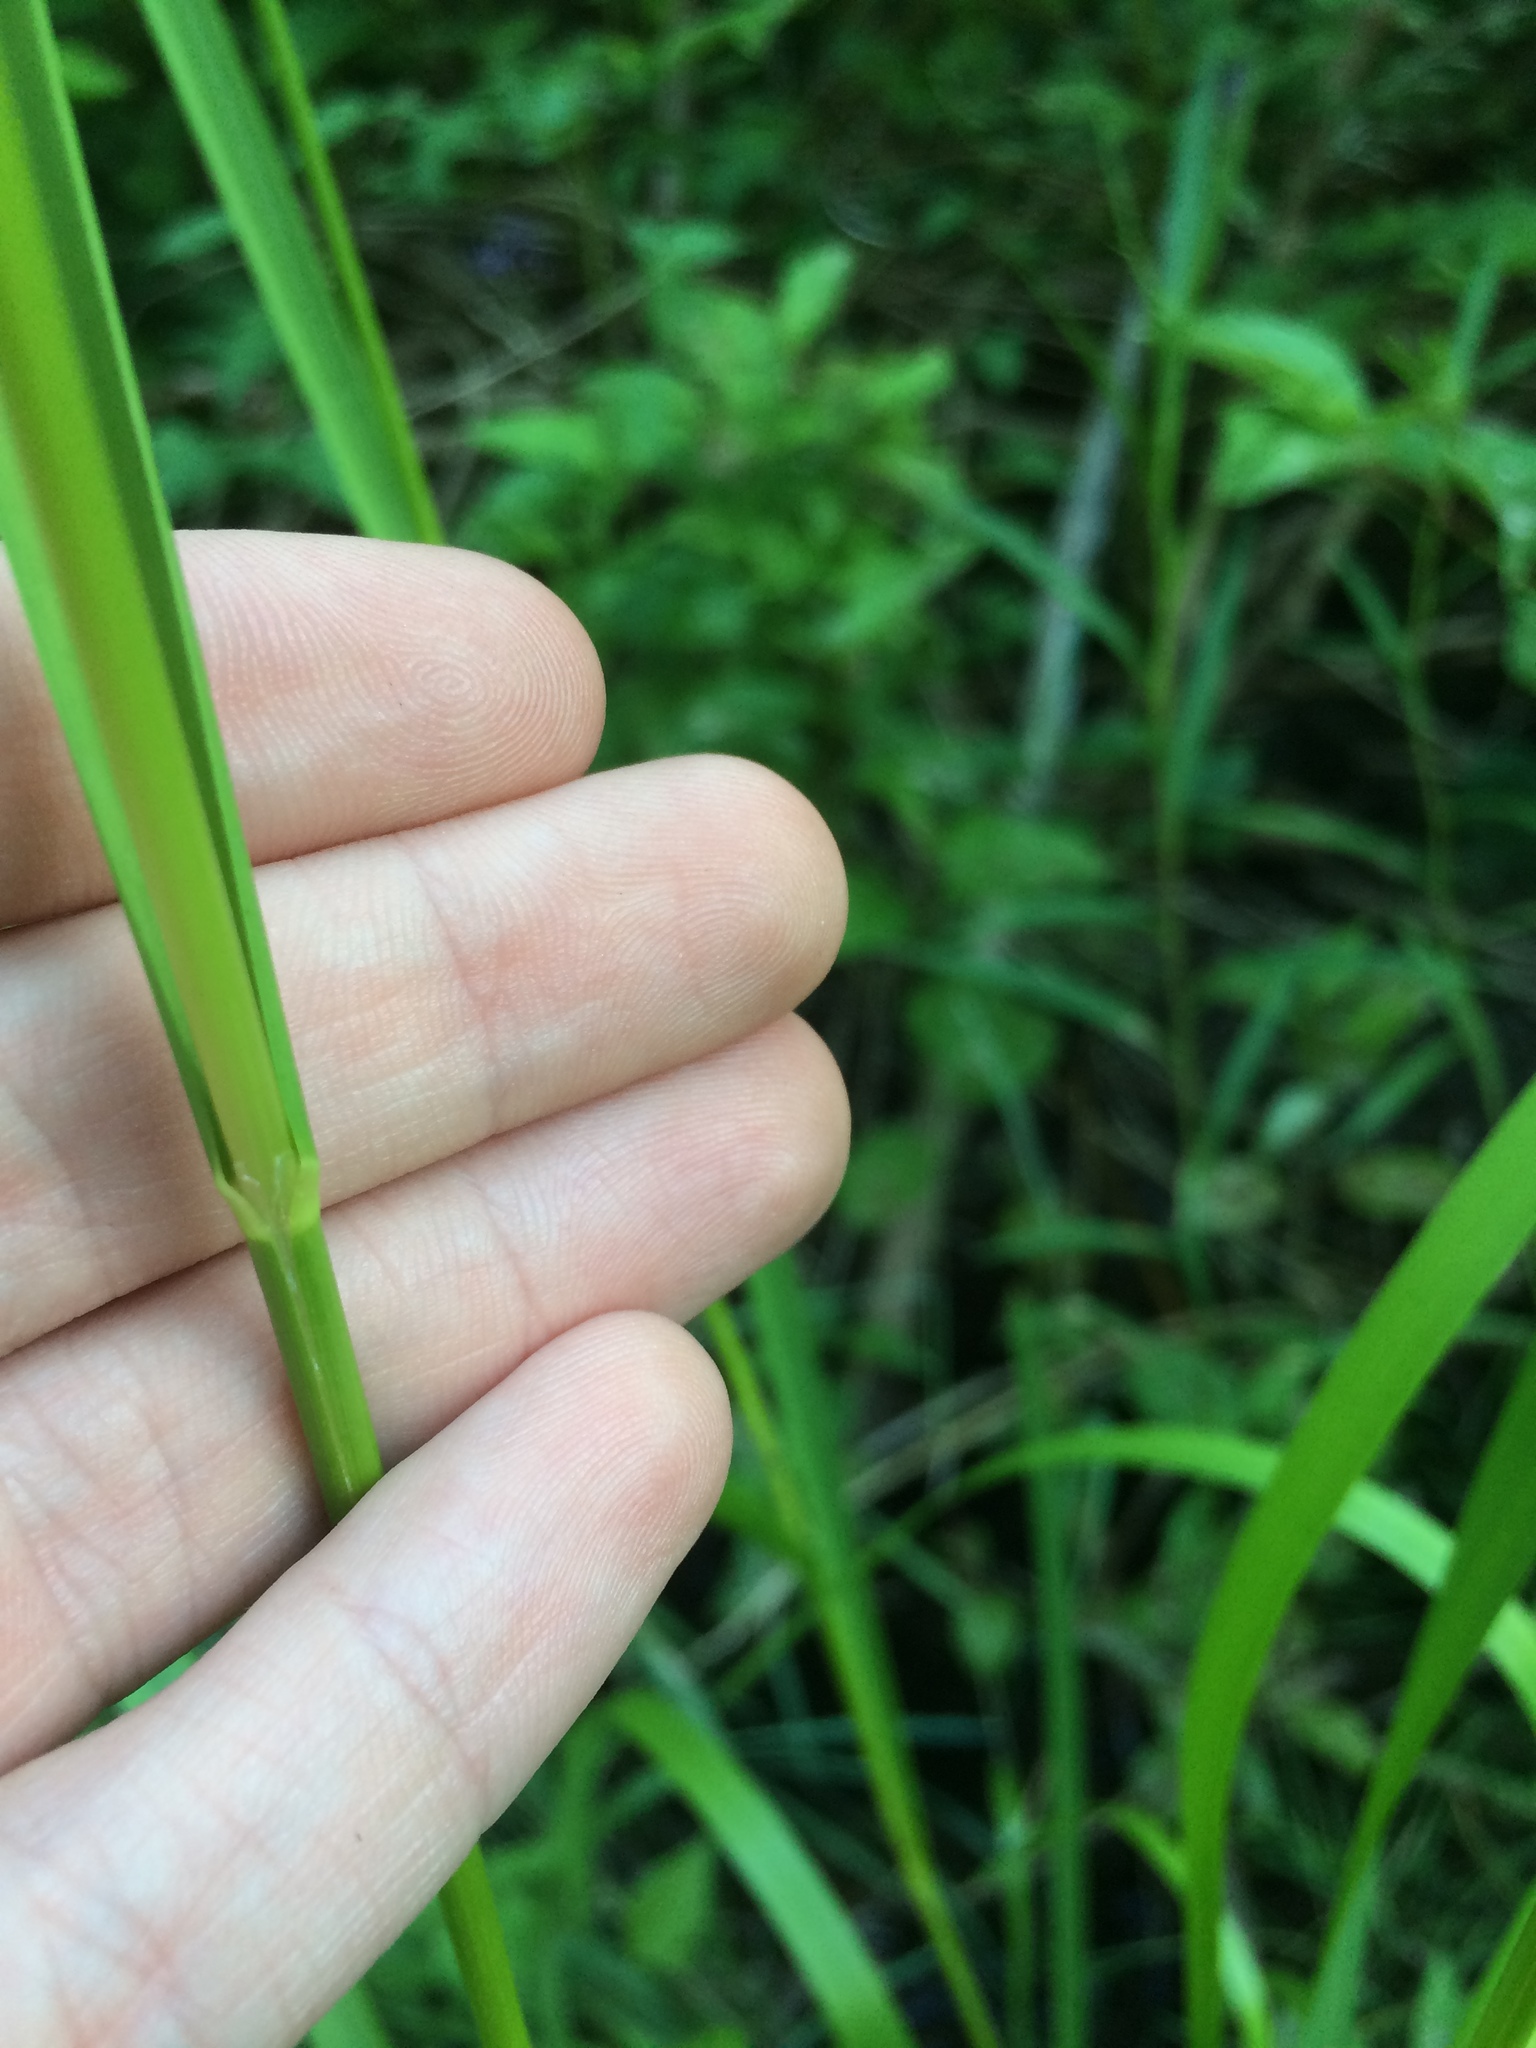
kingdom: Plantae
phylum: Tracheophyta
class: Liliopsida
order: Poales
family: Poaceae
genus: Glyceria
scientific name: Glyceria grandis
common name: American glyceria
